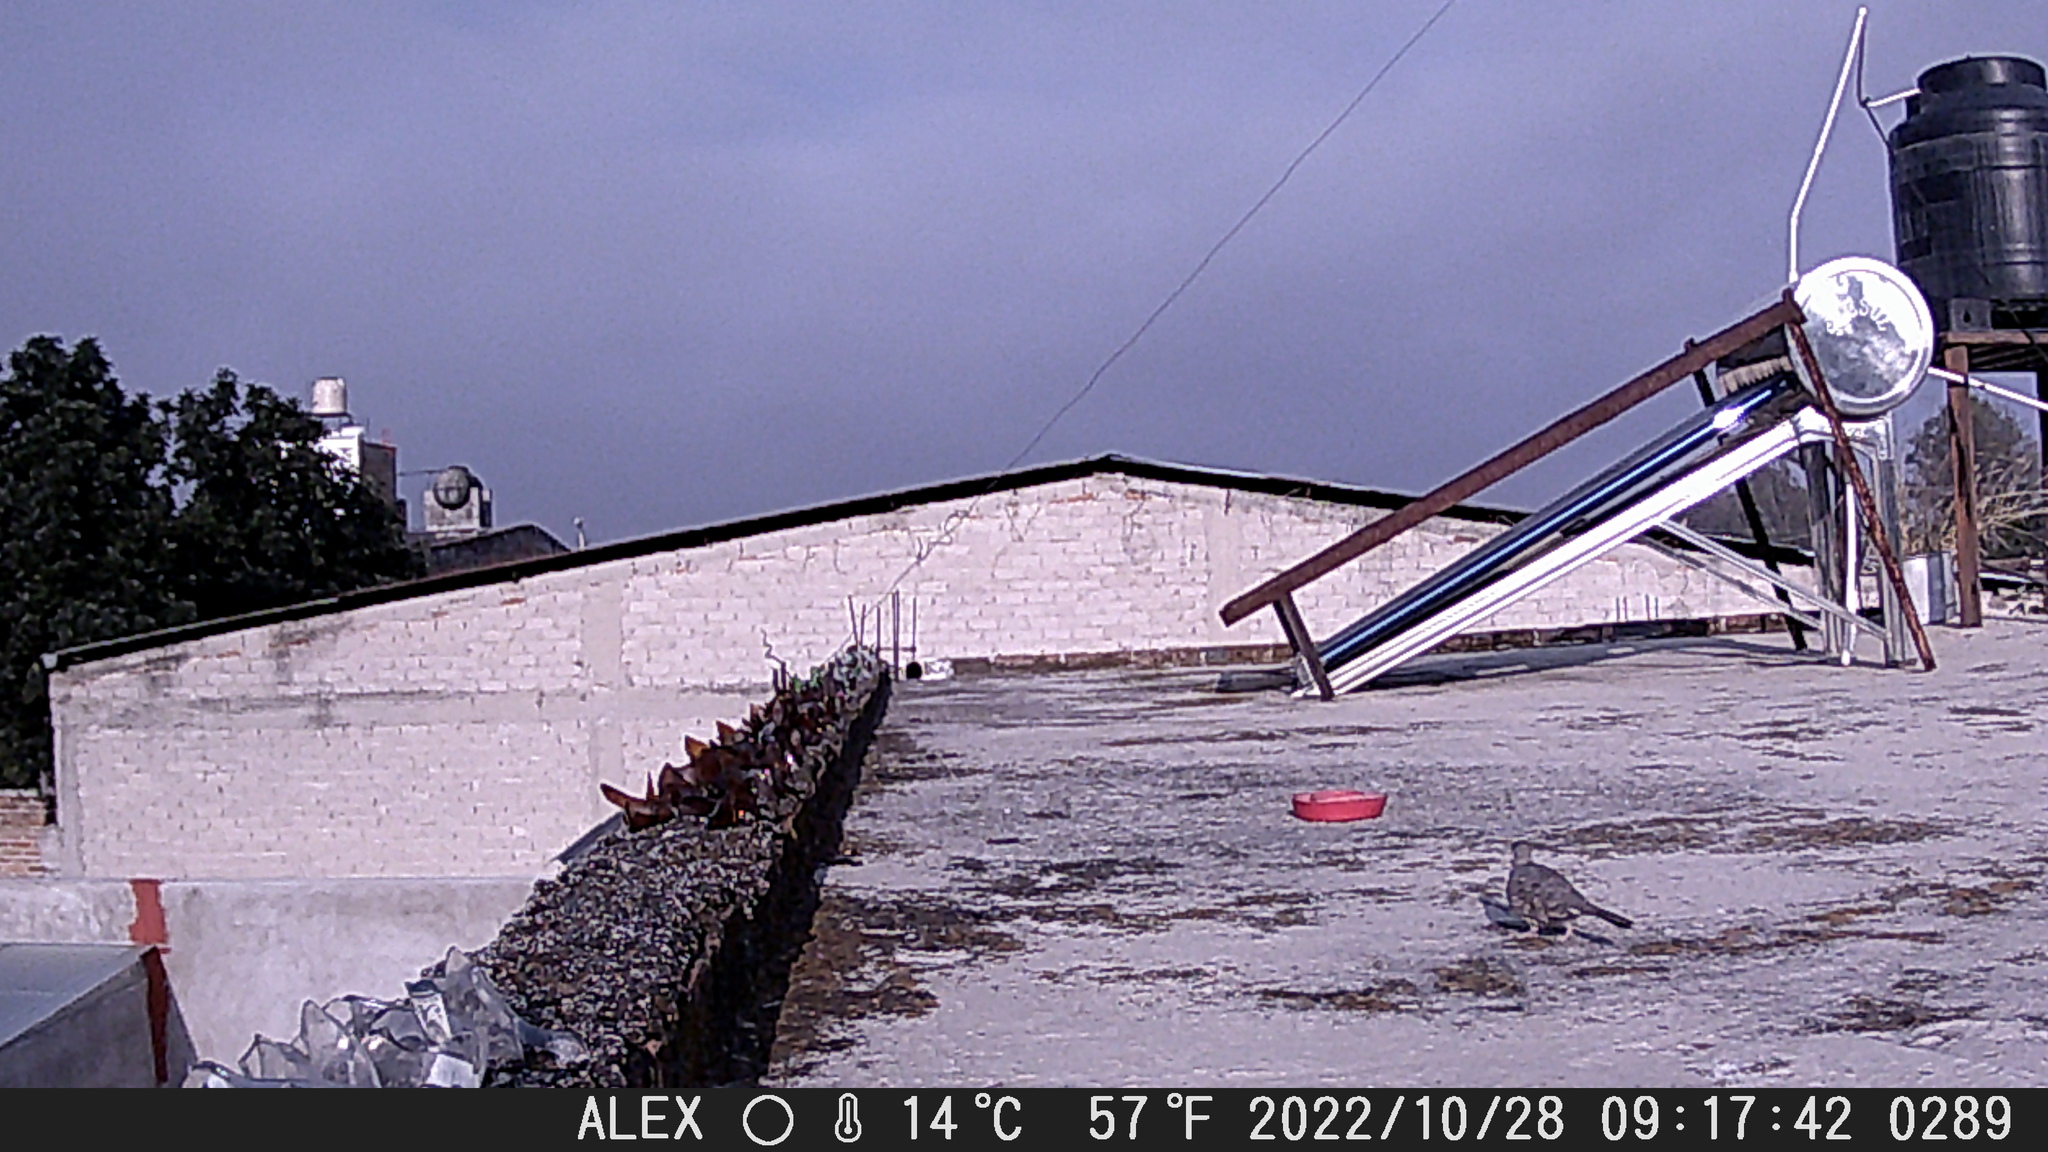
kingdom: Animalia
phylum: Chordata
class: Aves
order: Columbiformes
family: Columbidae
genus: Columbina
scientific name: Columbina inca
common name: Inca dove
